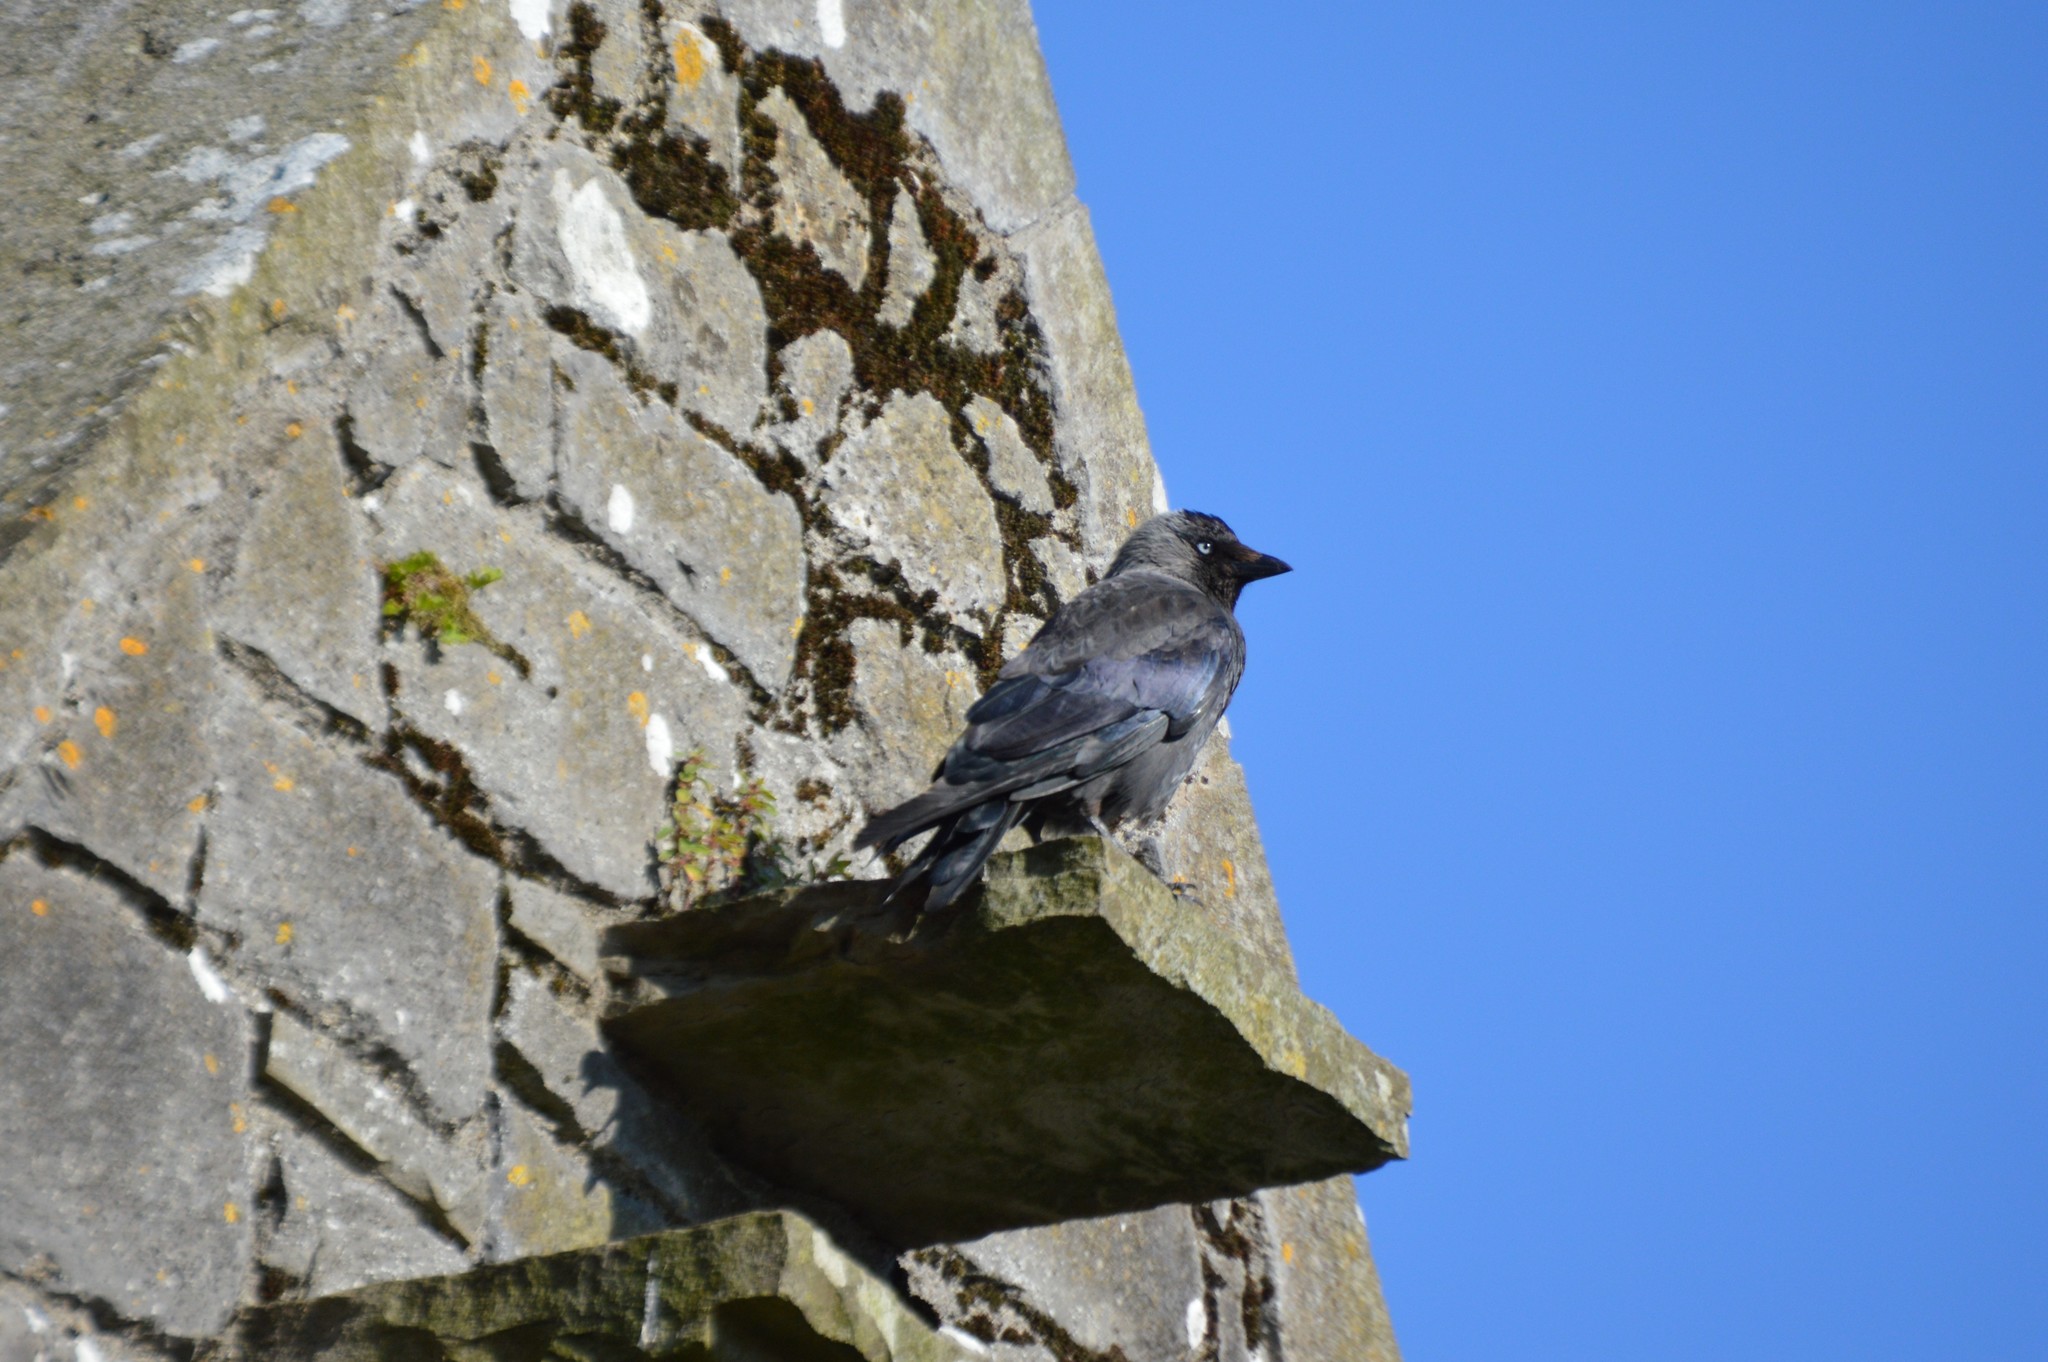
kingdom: Animalia
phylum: Chordata
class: Aves
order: Passeriformes
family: Corvidae
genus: Coloeus
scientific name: Coloeus monedula
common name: Western jackdaw
